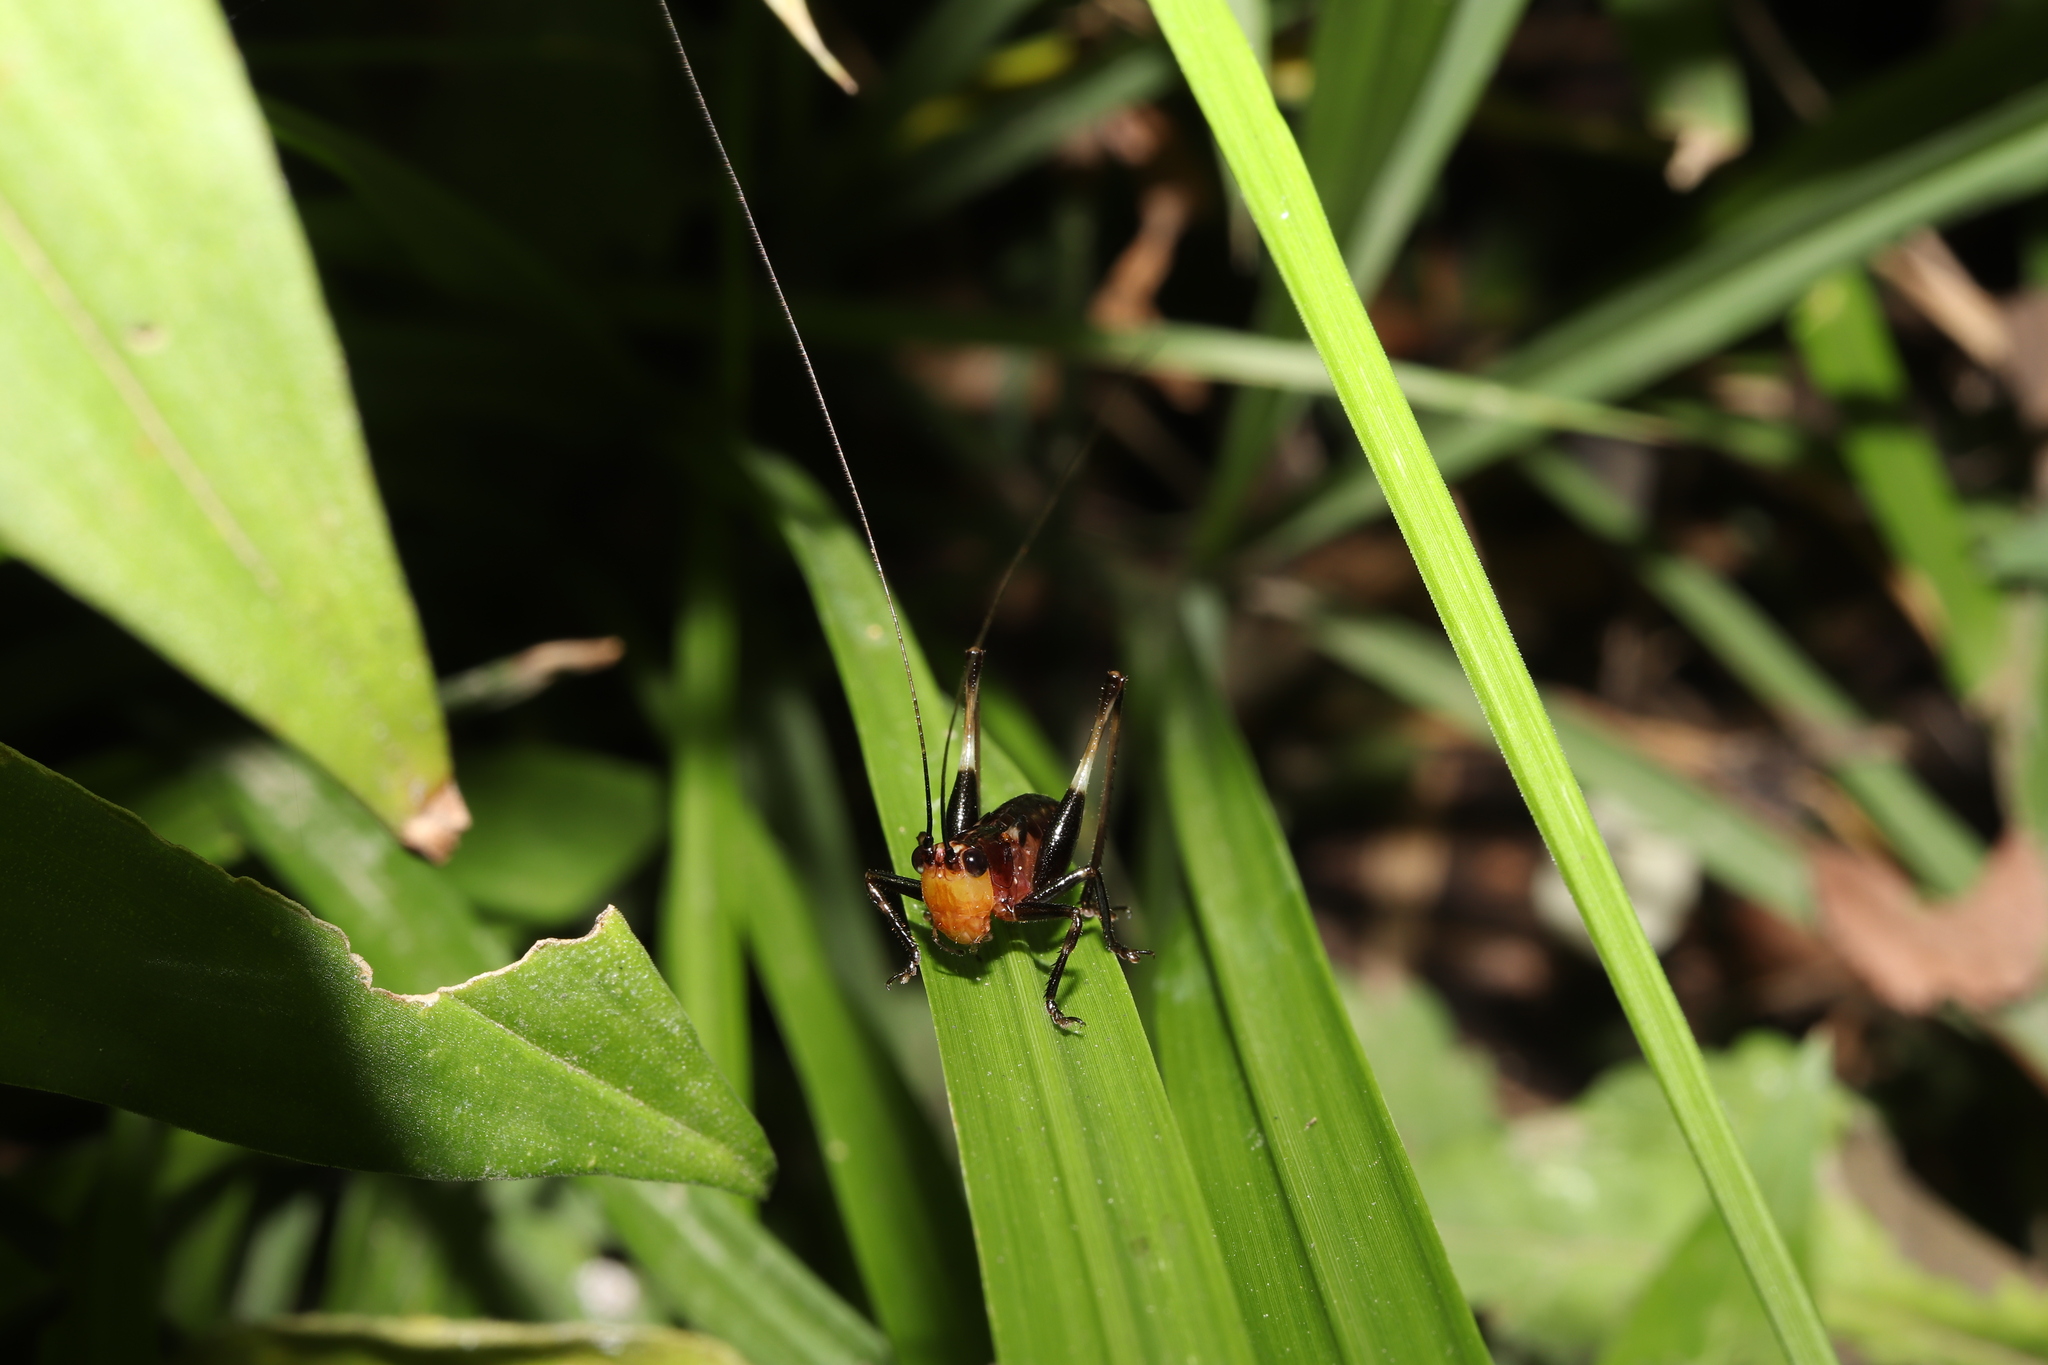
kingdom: Animalia
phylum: Arthropoda
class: Insecta
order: Orthoptera
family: Tettigoniidae
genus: Conocephalus
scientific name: Conocephalus melaenus
